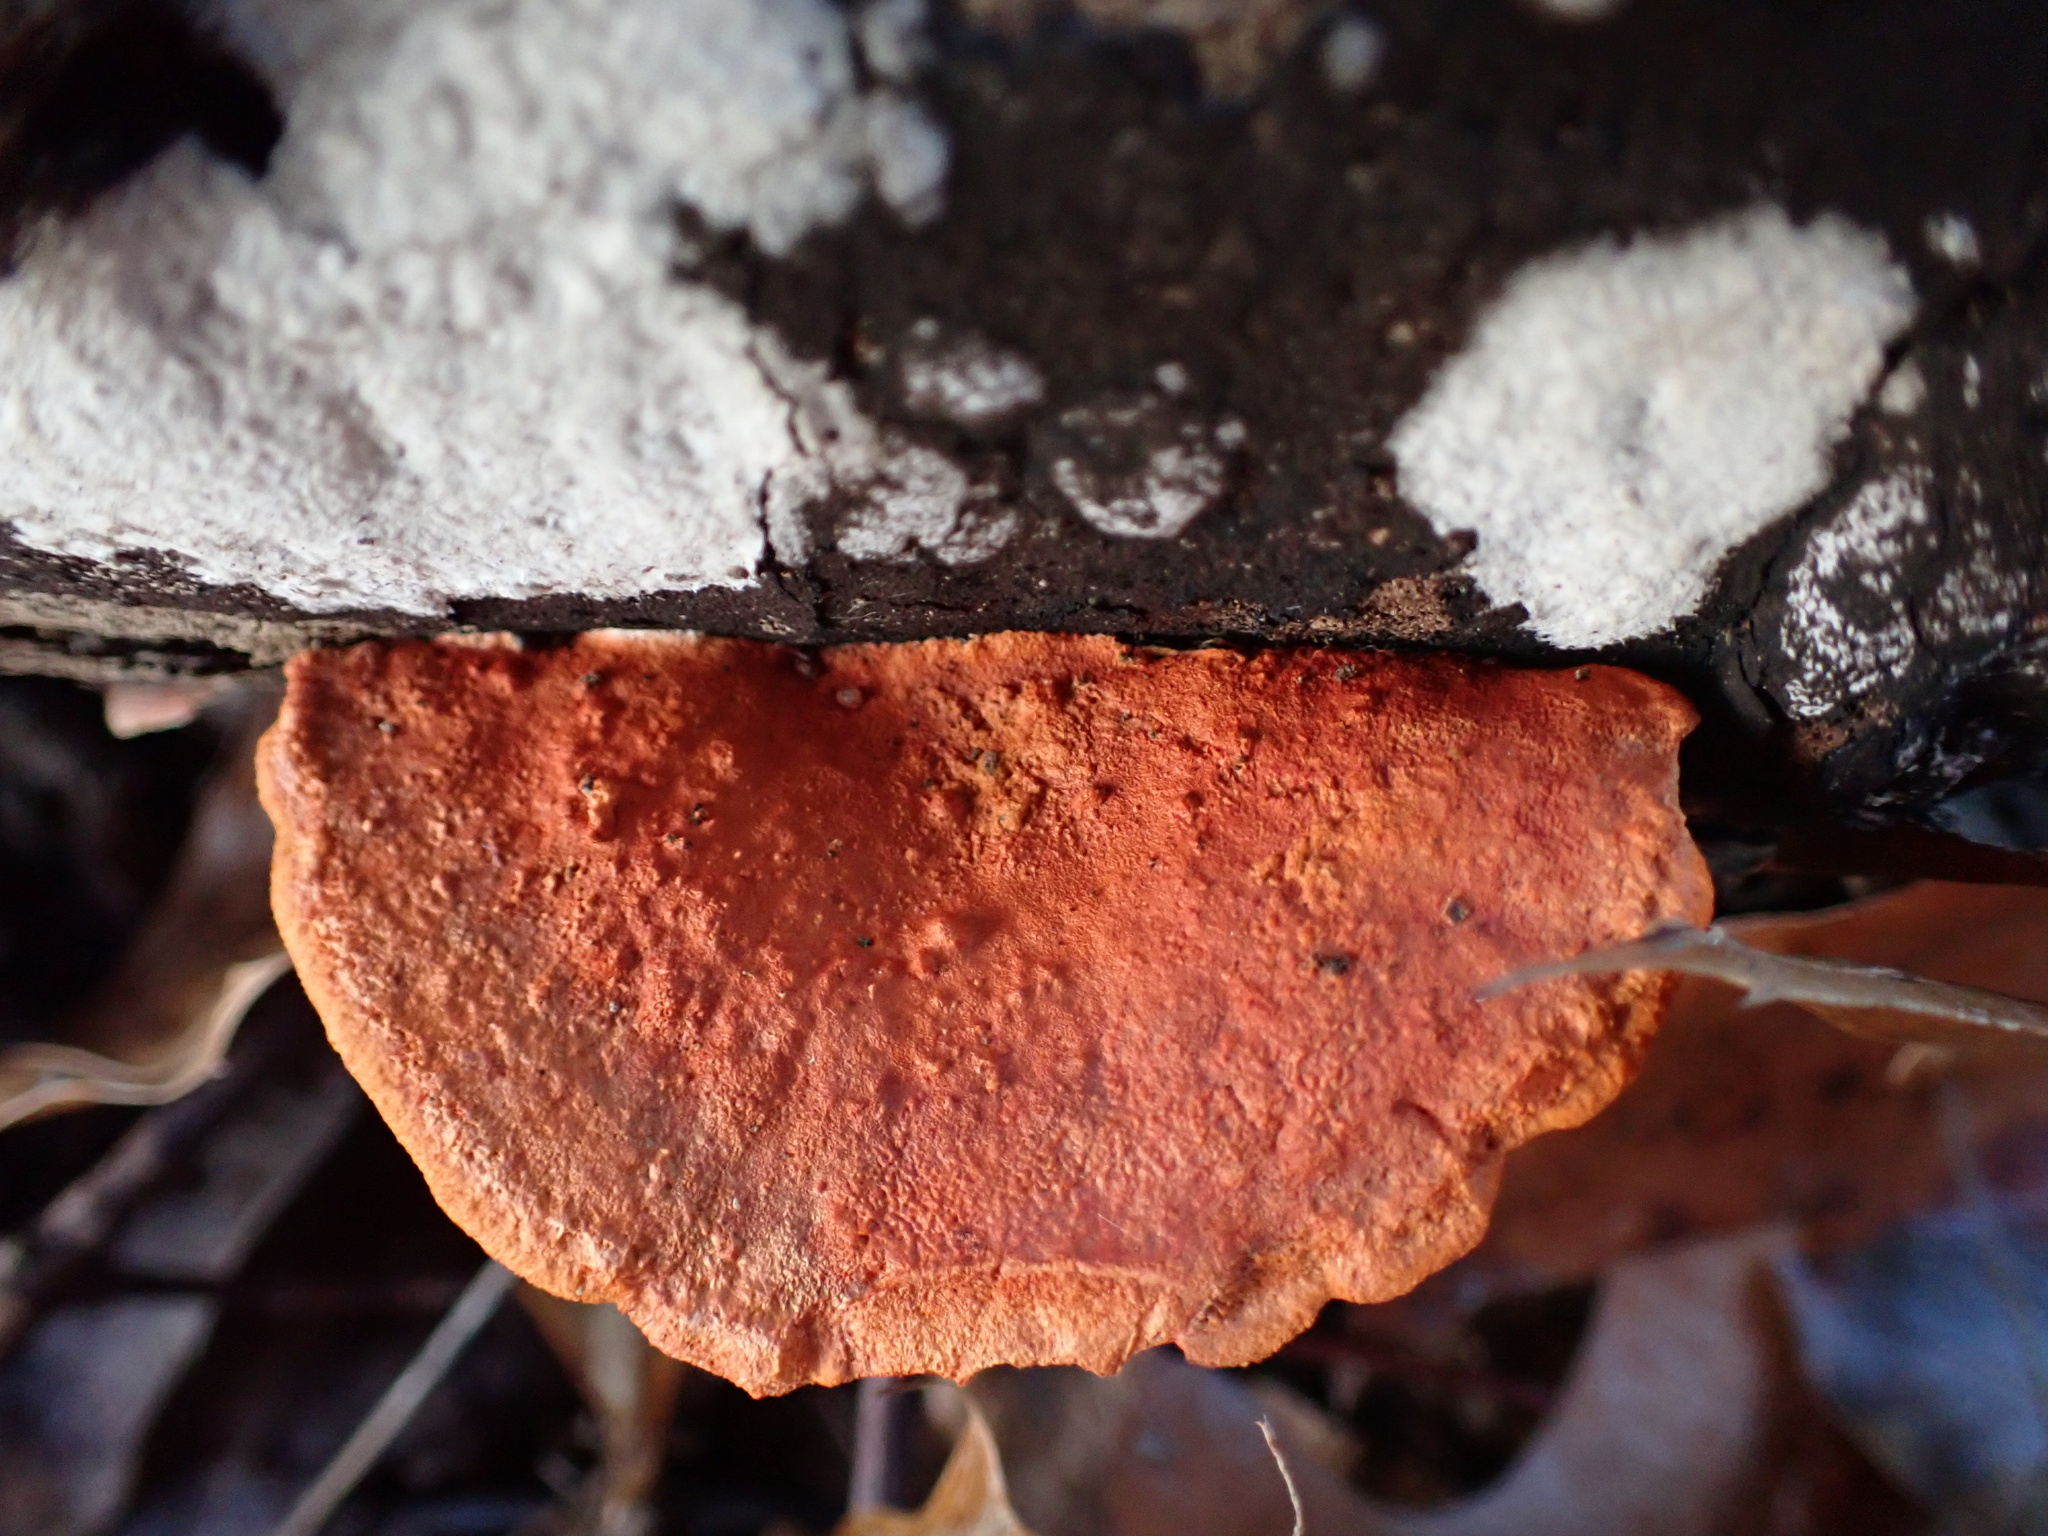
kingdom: Fungi
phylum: Basidiomycota
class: Agaricomycetes
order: Polyporales
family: Polyporaceae
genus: Trametes
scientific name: Trametes cinnabarina
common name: Northern cinnabar polypore
